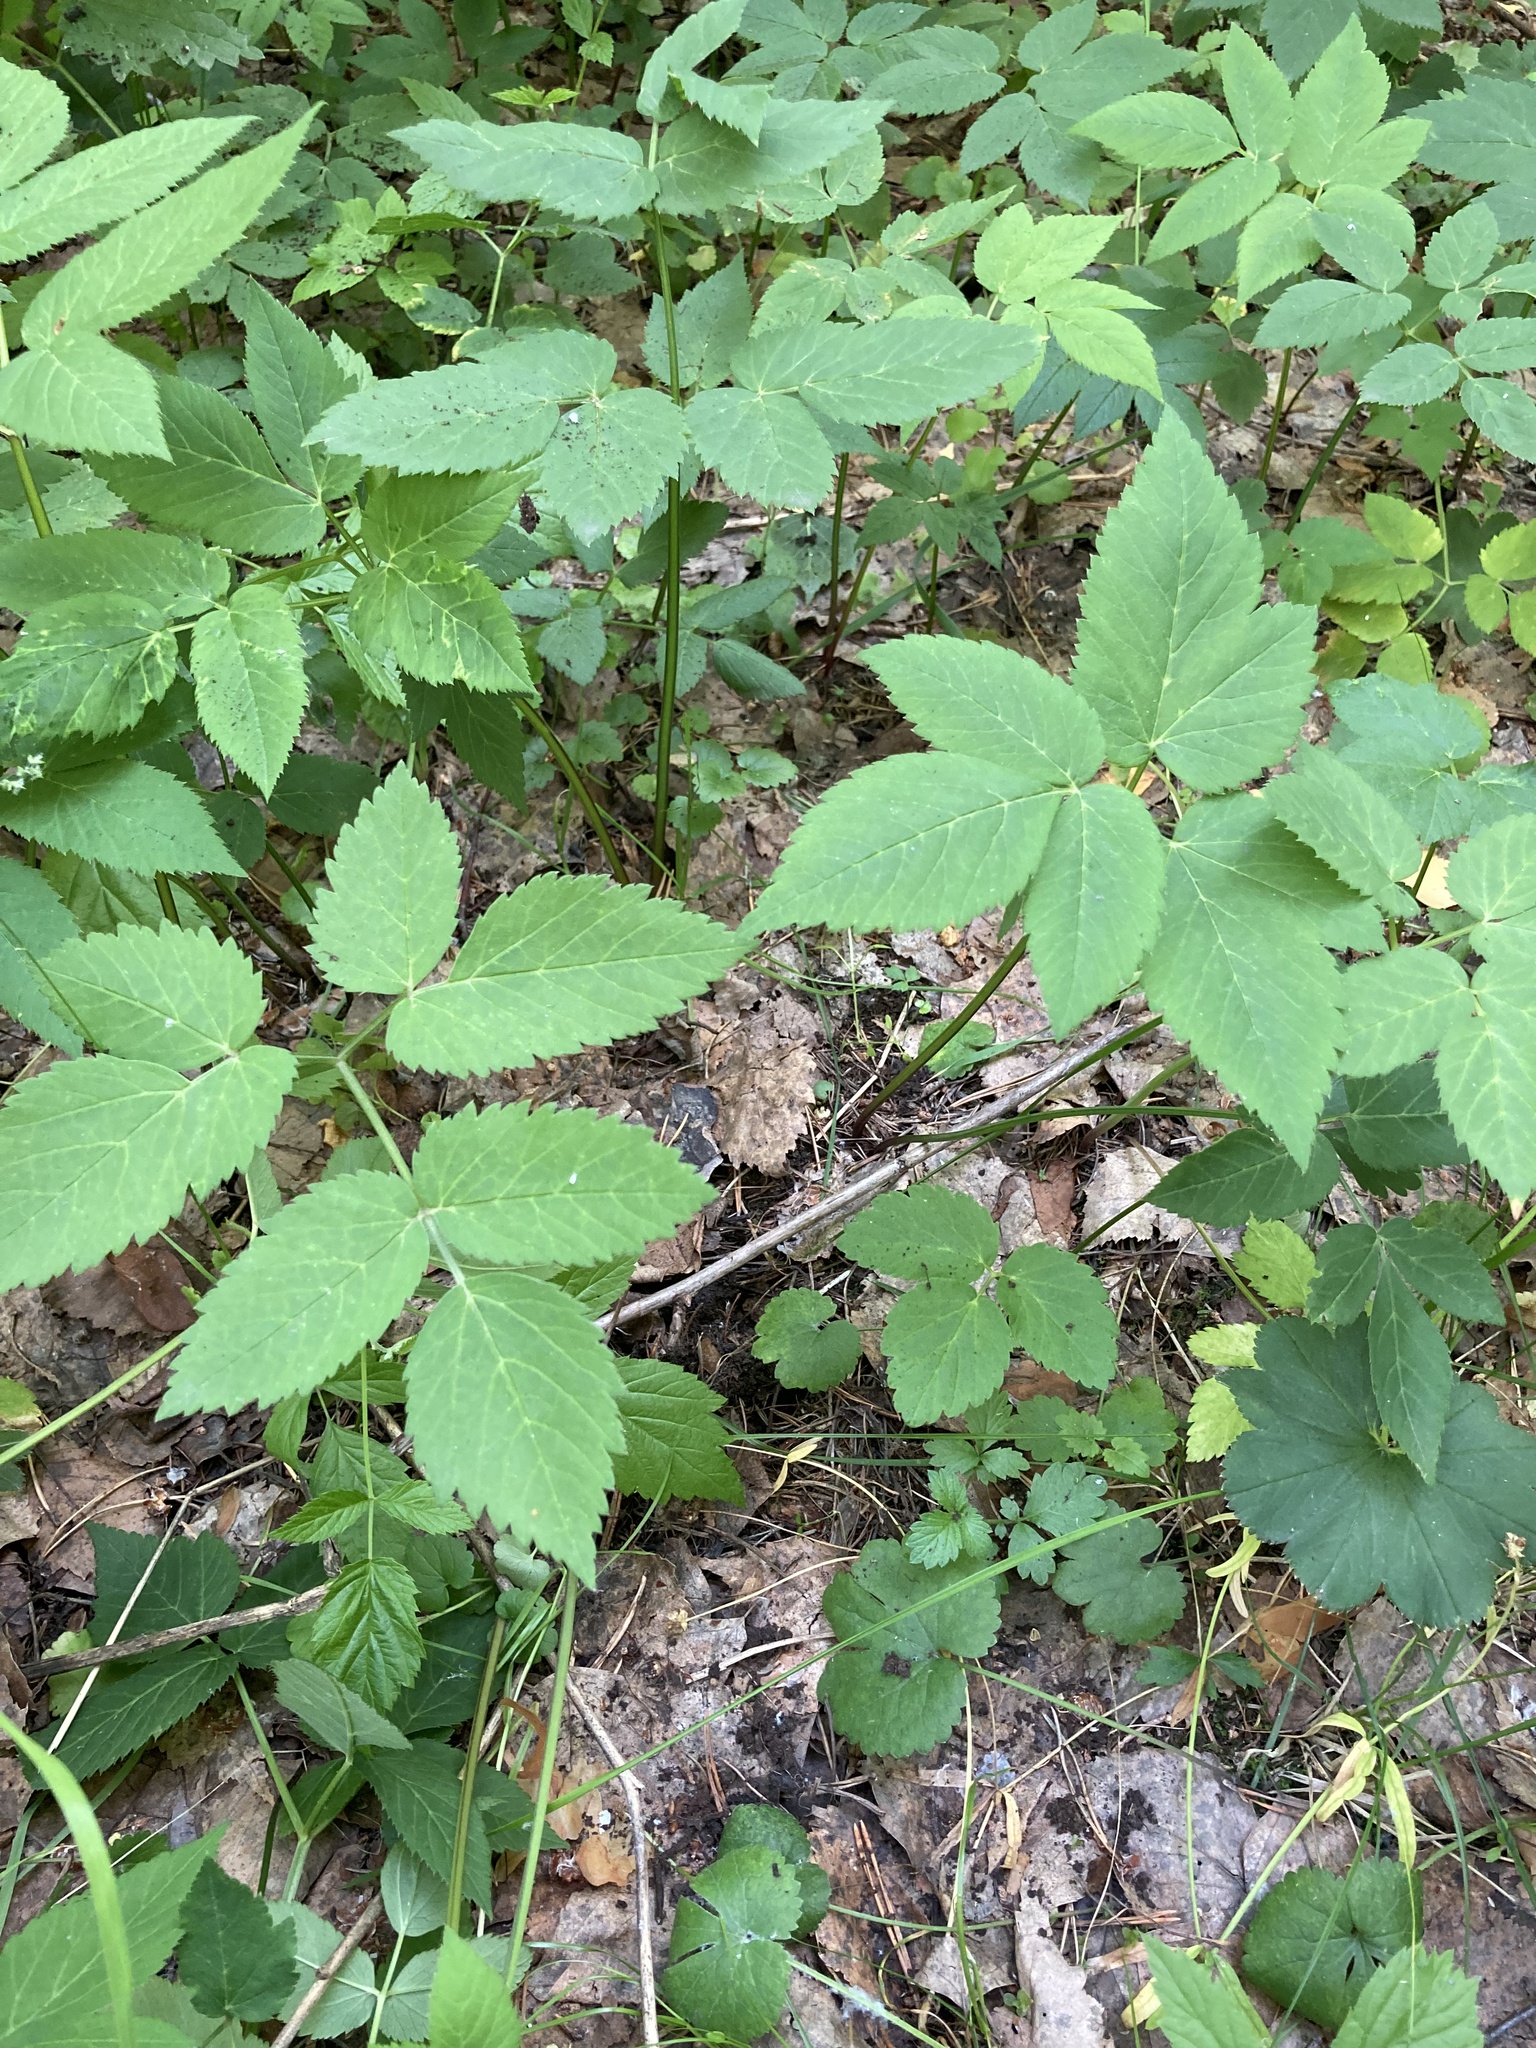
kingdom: Plantae
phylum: Tracheophyta
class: Magnoliopsida
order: Apiales
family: Apiaceae
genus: Aegopodium
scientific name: Aegopodium podagraria
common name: Ground-elder
